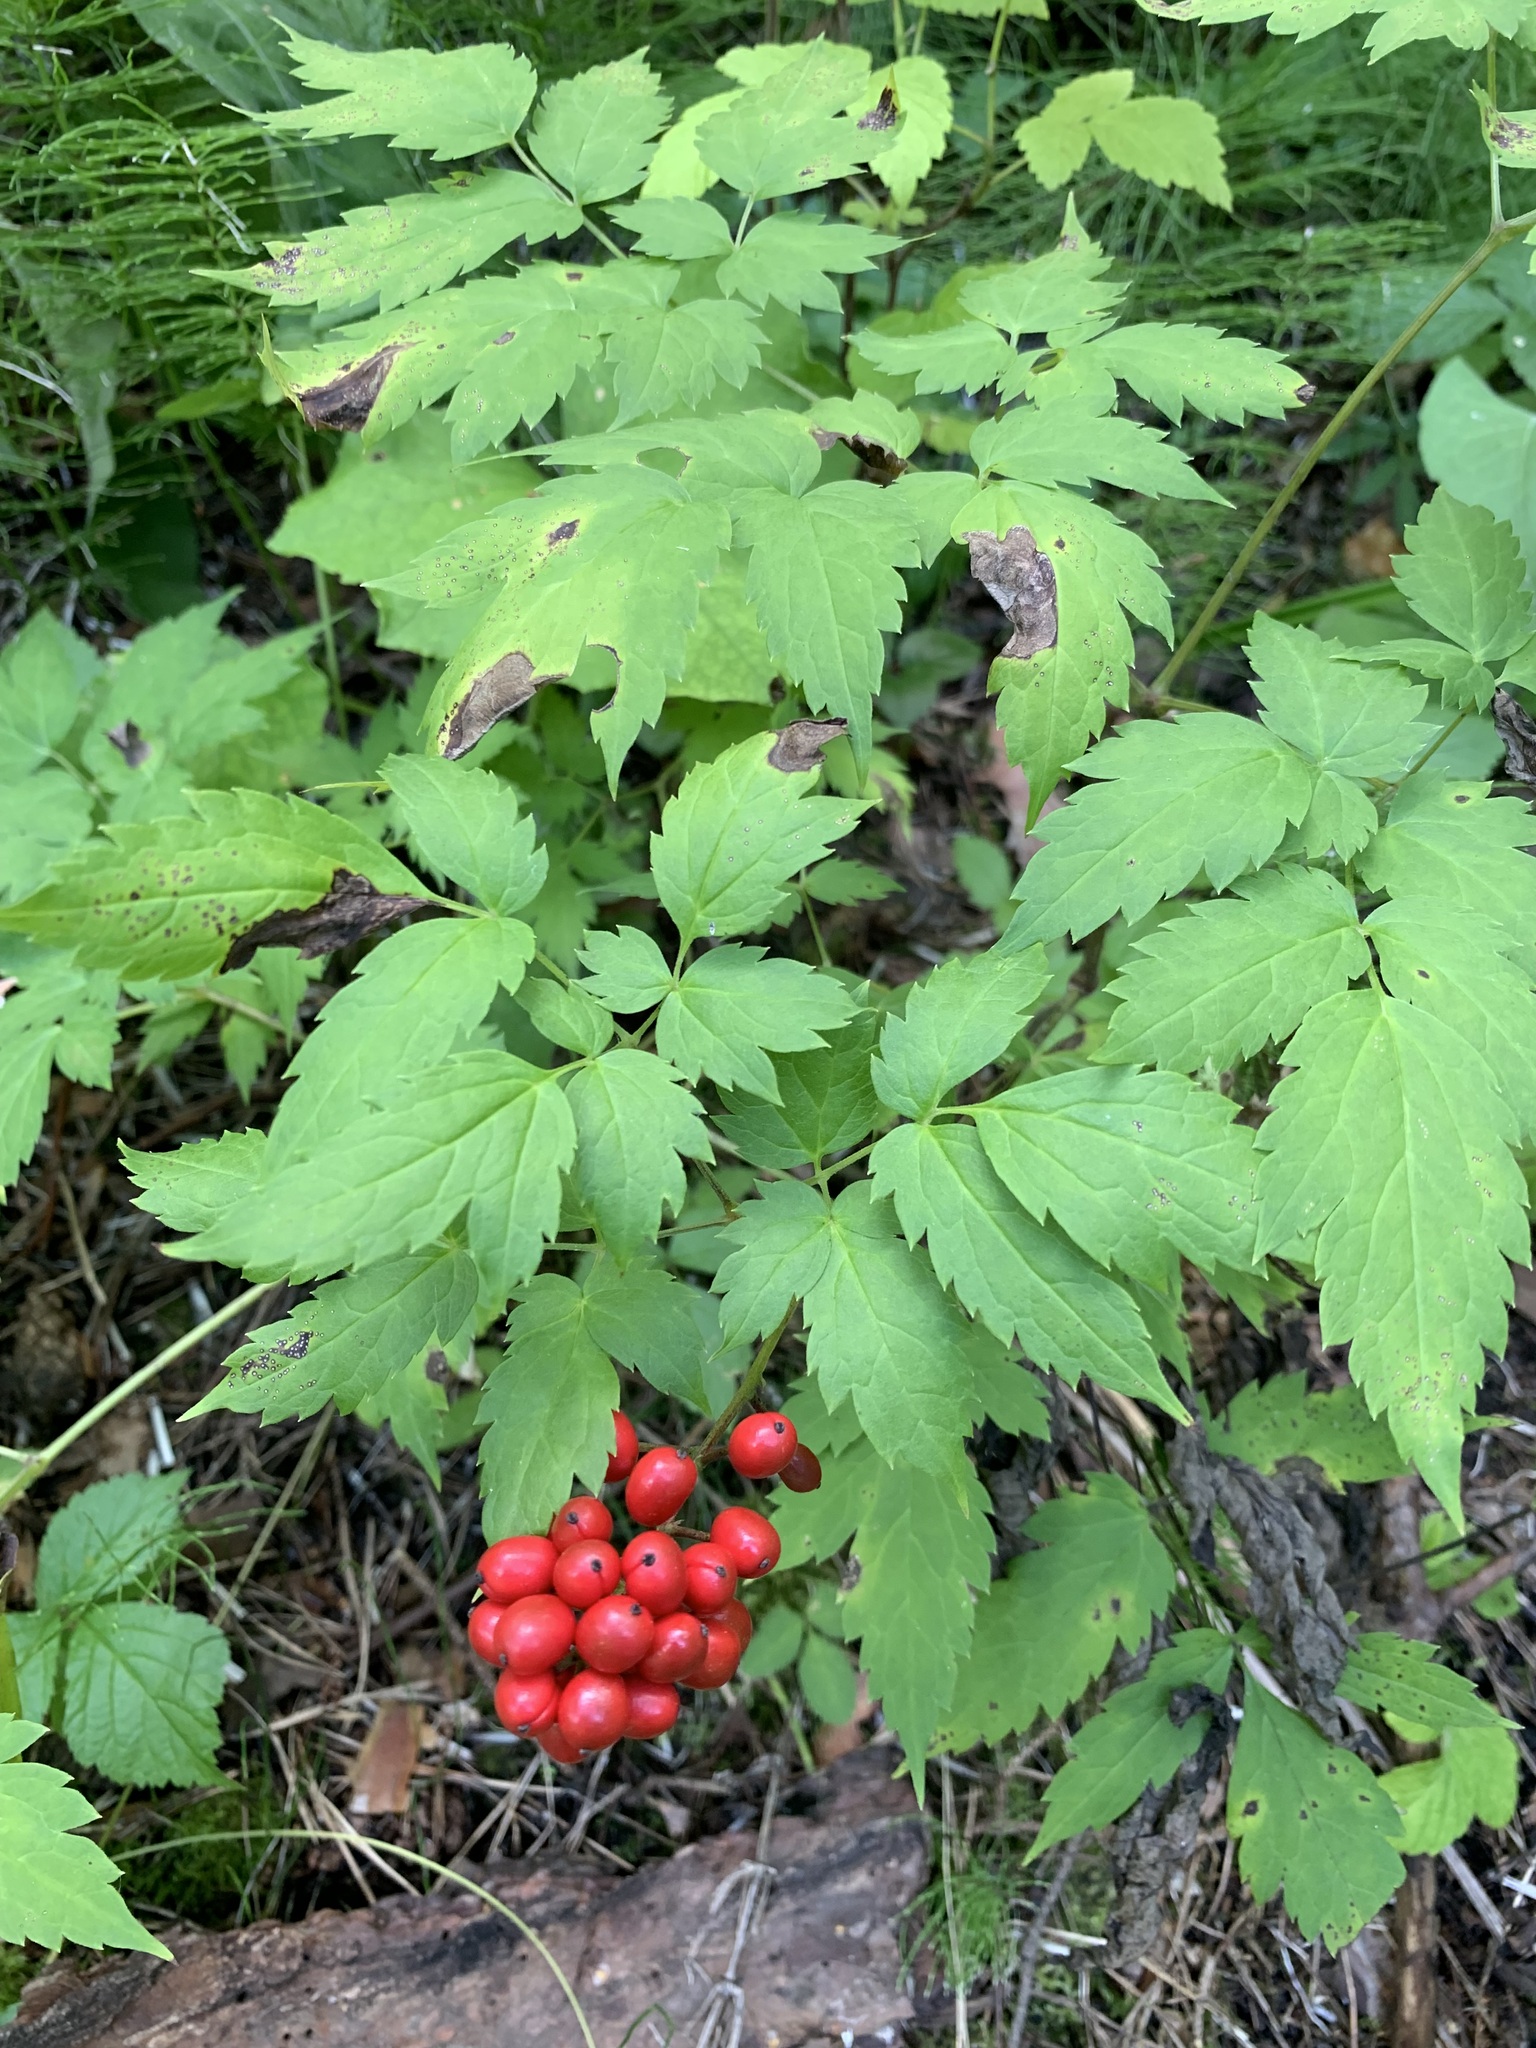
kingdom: Plantae
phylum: Tracheophyta
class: Magnoliopsida
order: Ranunculales
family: Ranunculaceae
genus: Actaea
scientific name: Actaea erythrocarpa
